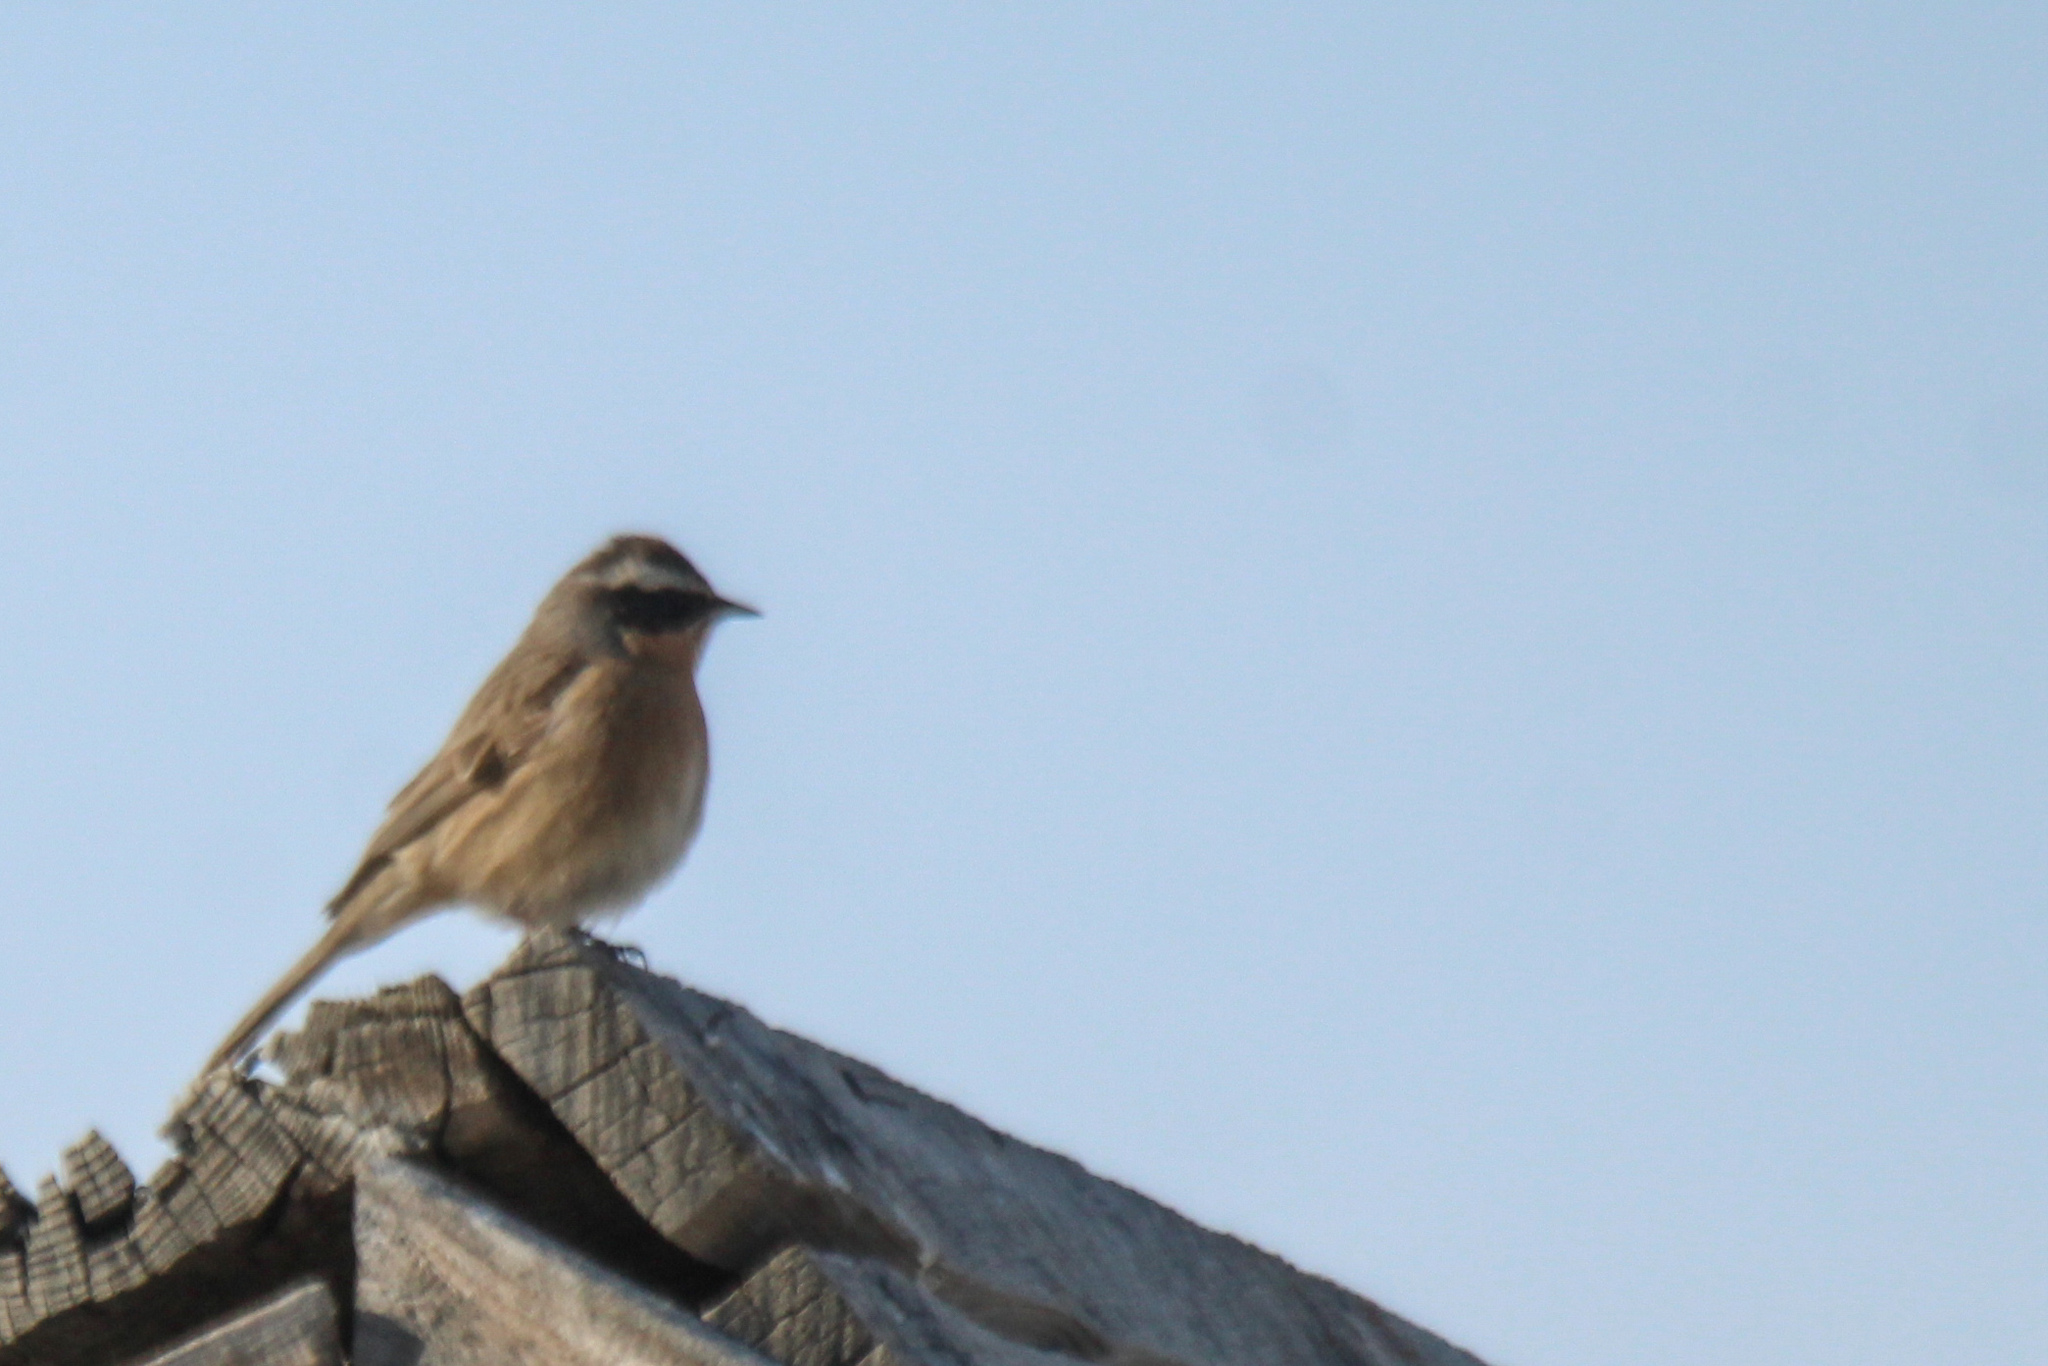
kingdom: Animalia
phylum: Chordata
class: Aves
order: Passeriformes
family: Prunellidae
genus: Prunella
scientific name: Prunella fulvescens
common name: Brown accentor
